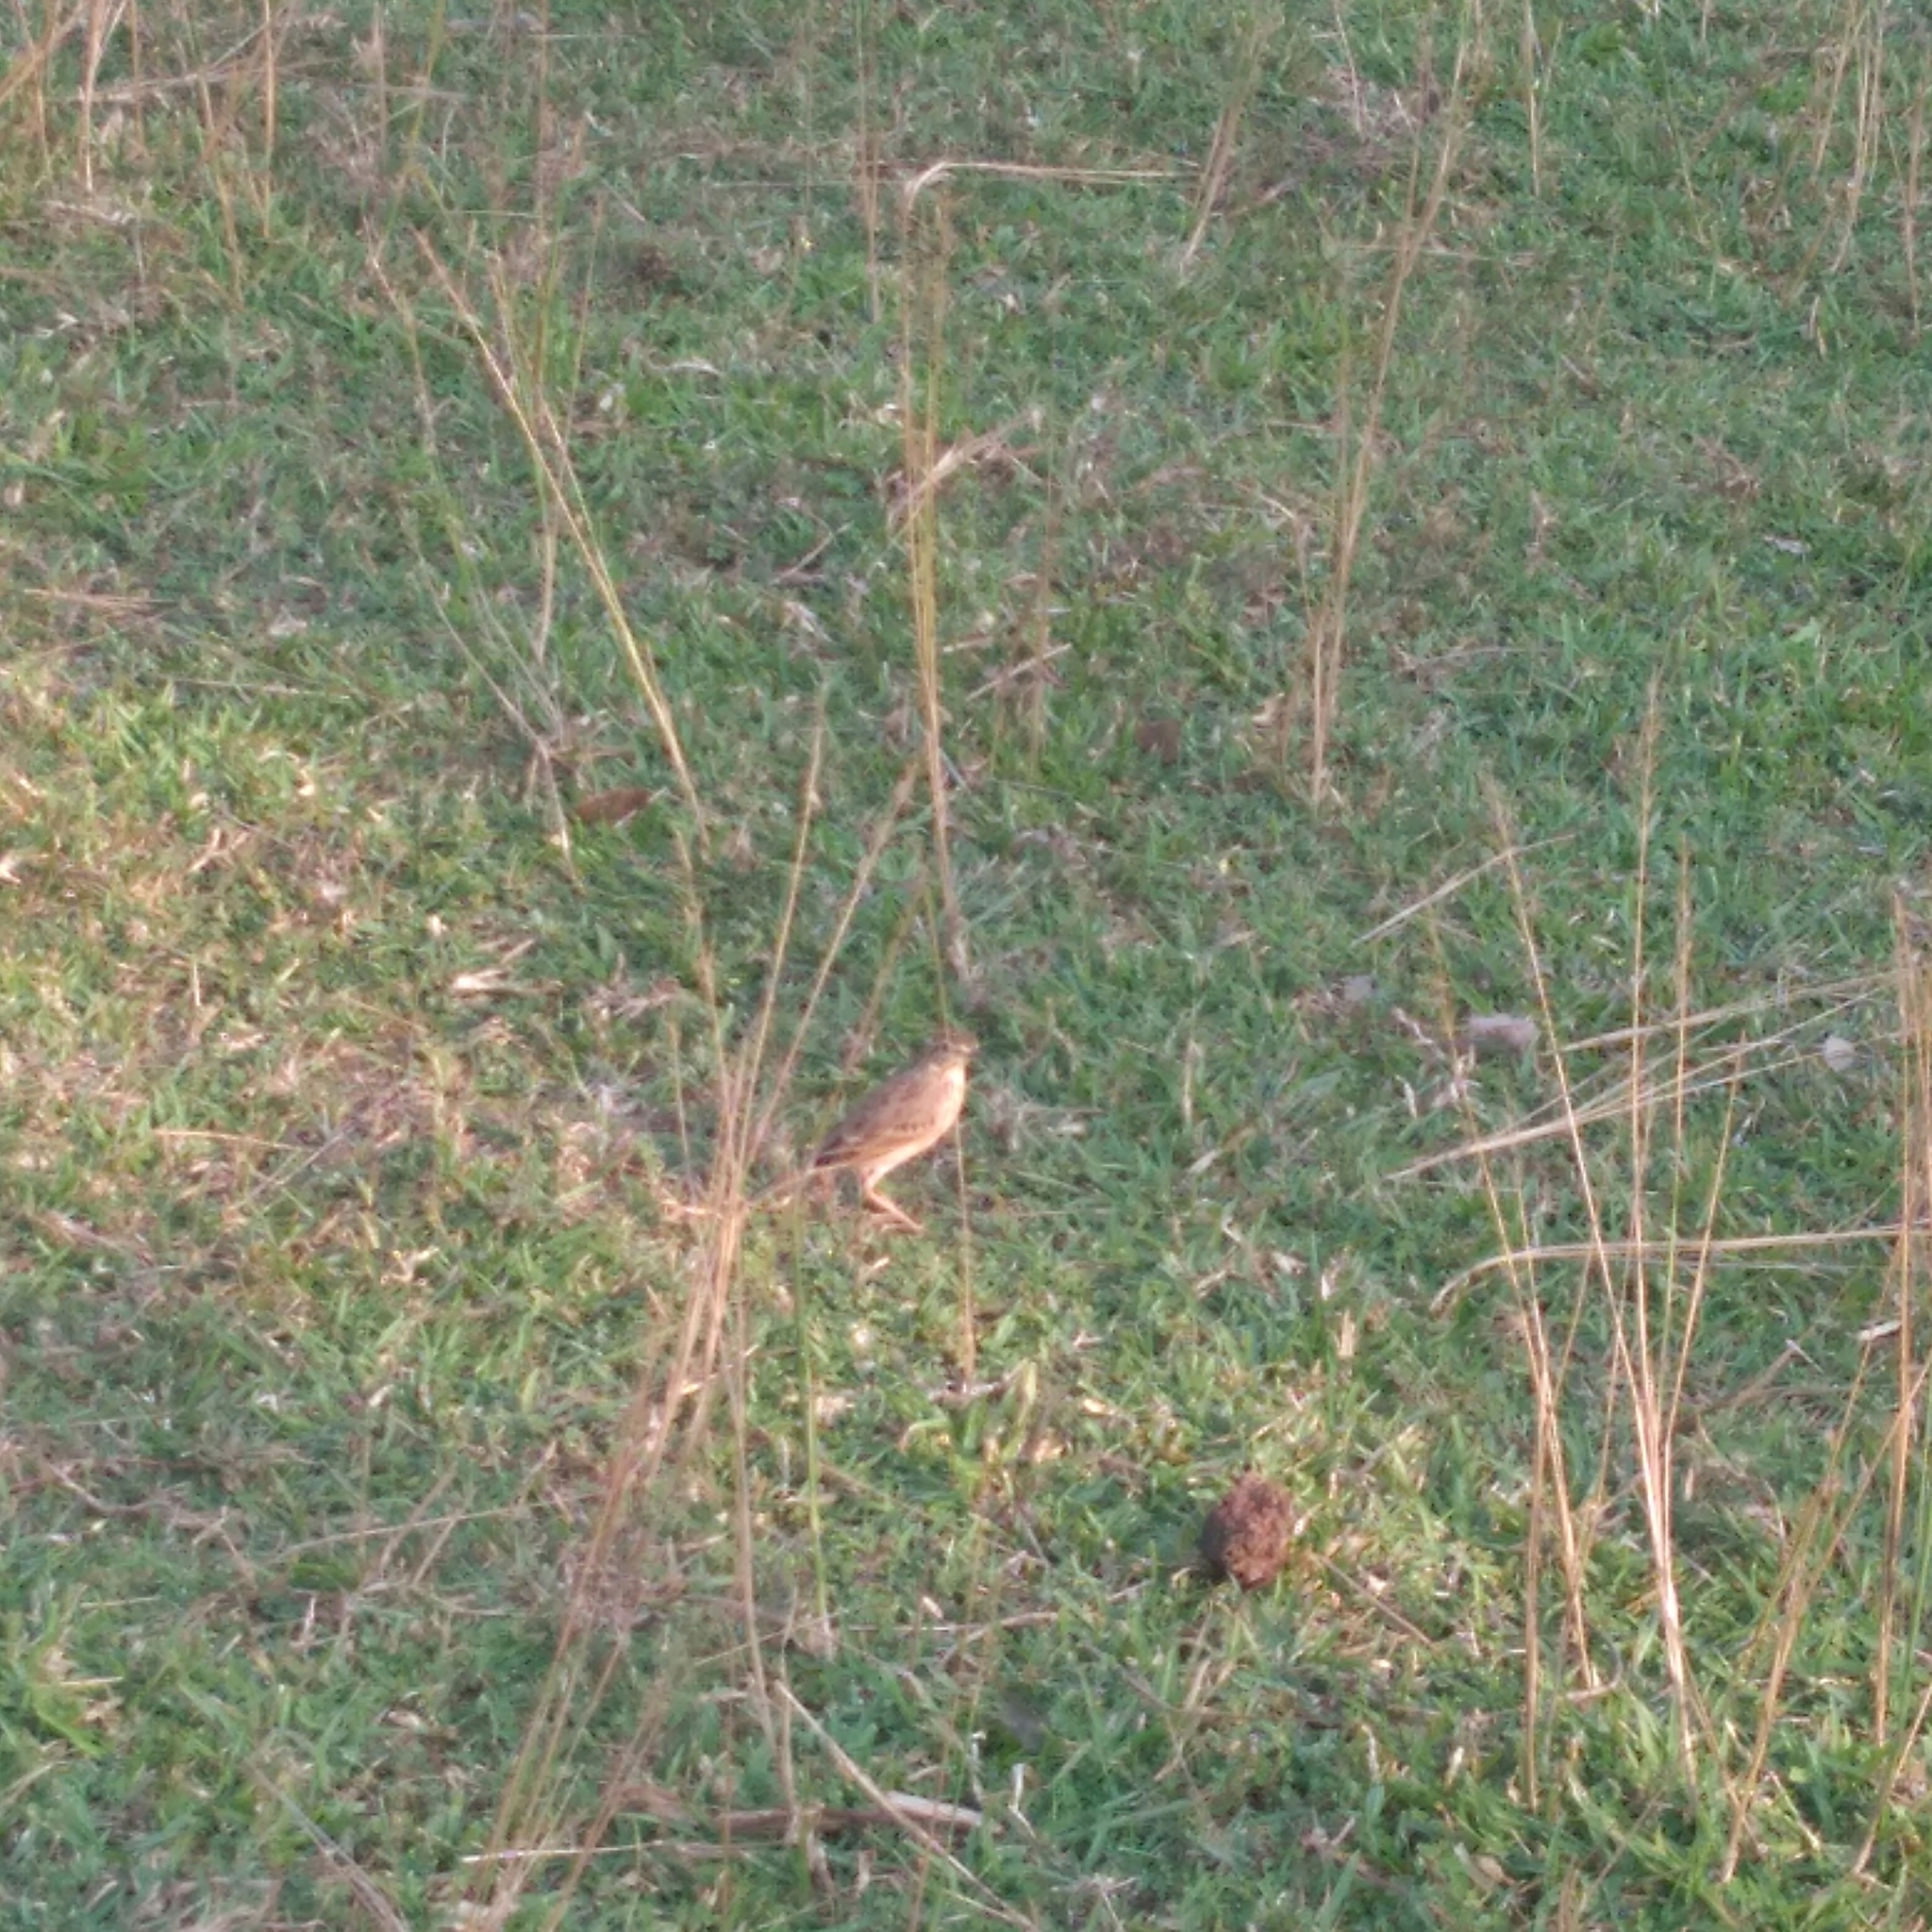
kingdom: Animalia
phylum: Chordata
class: Aves
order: Passeriformes
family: Motacillidae
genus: Anthus
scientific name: Anthus rufulus
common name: Paddyfield pipit
